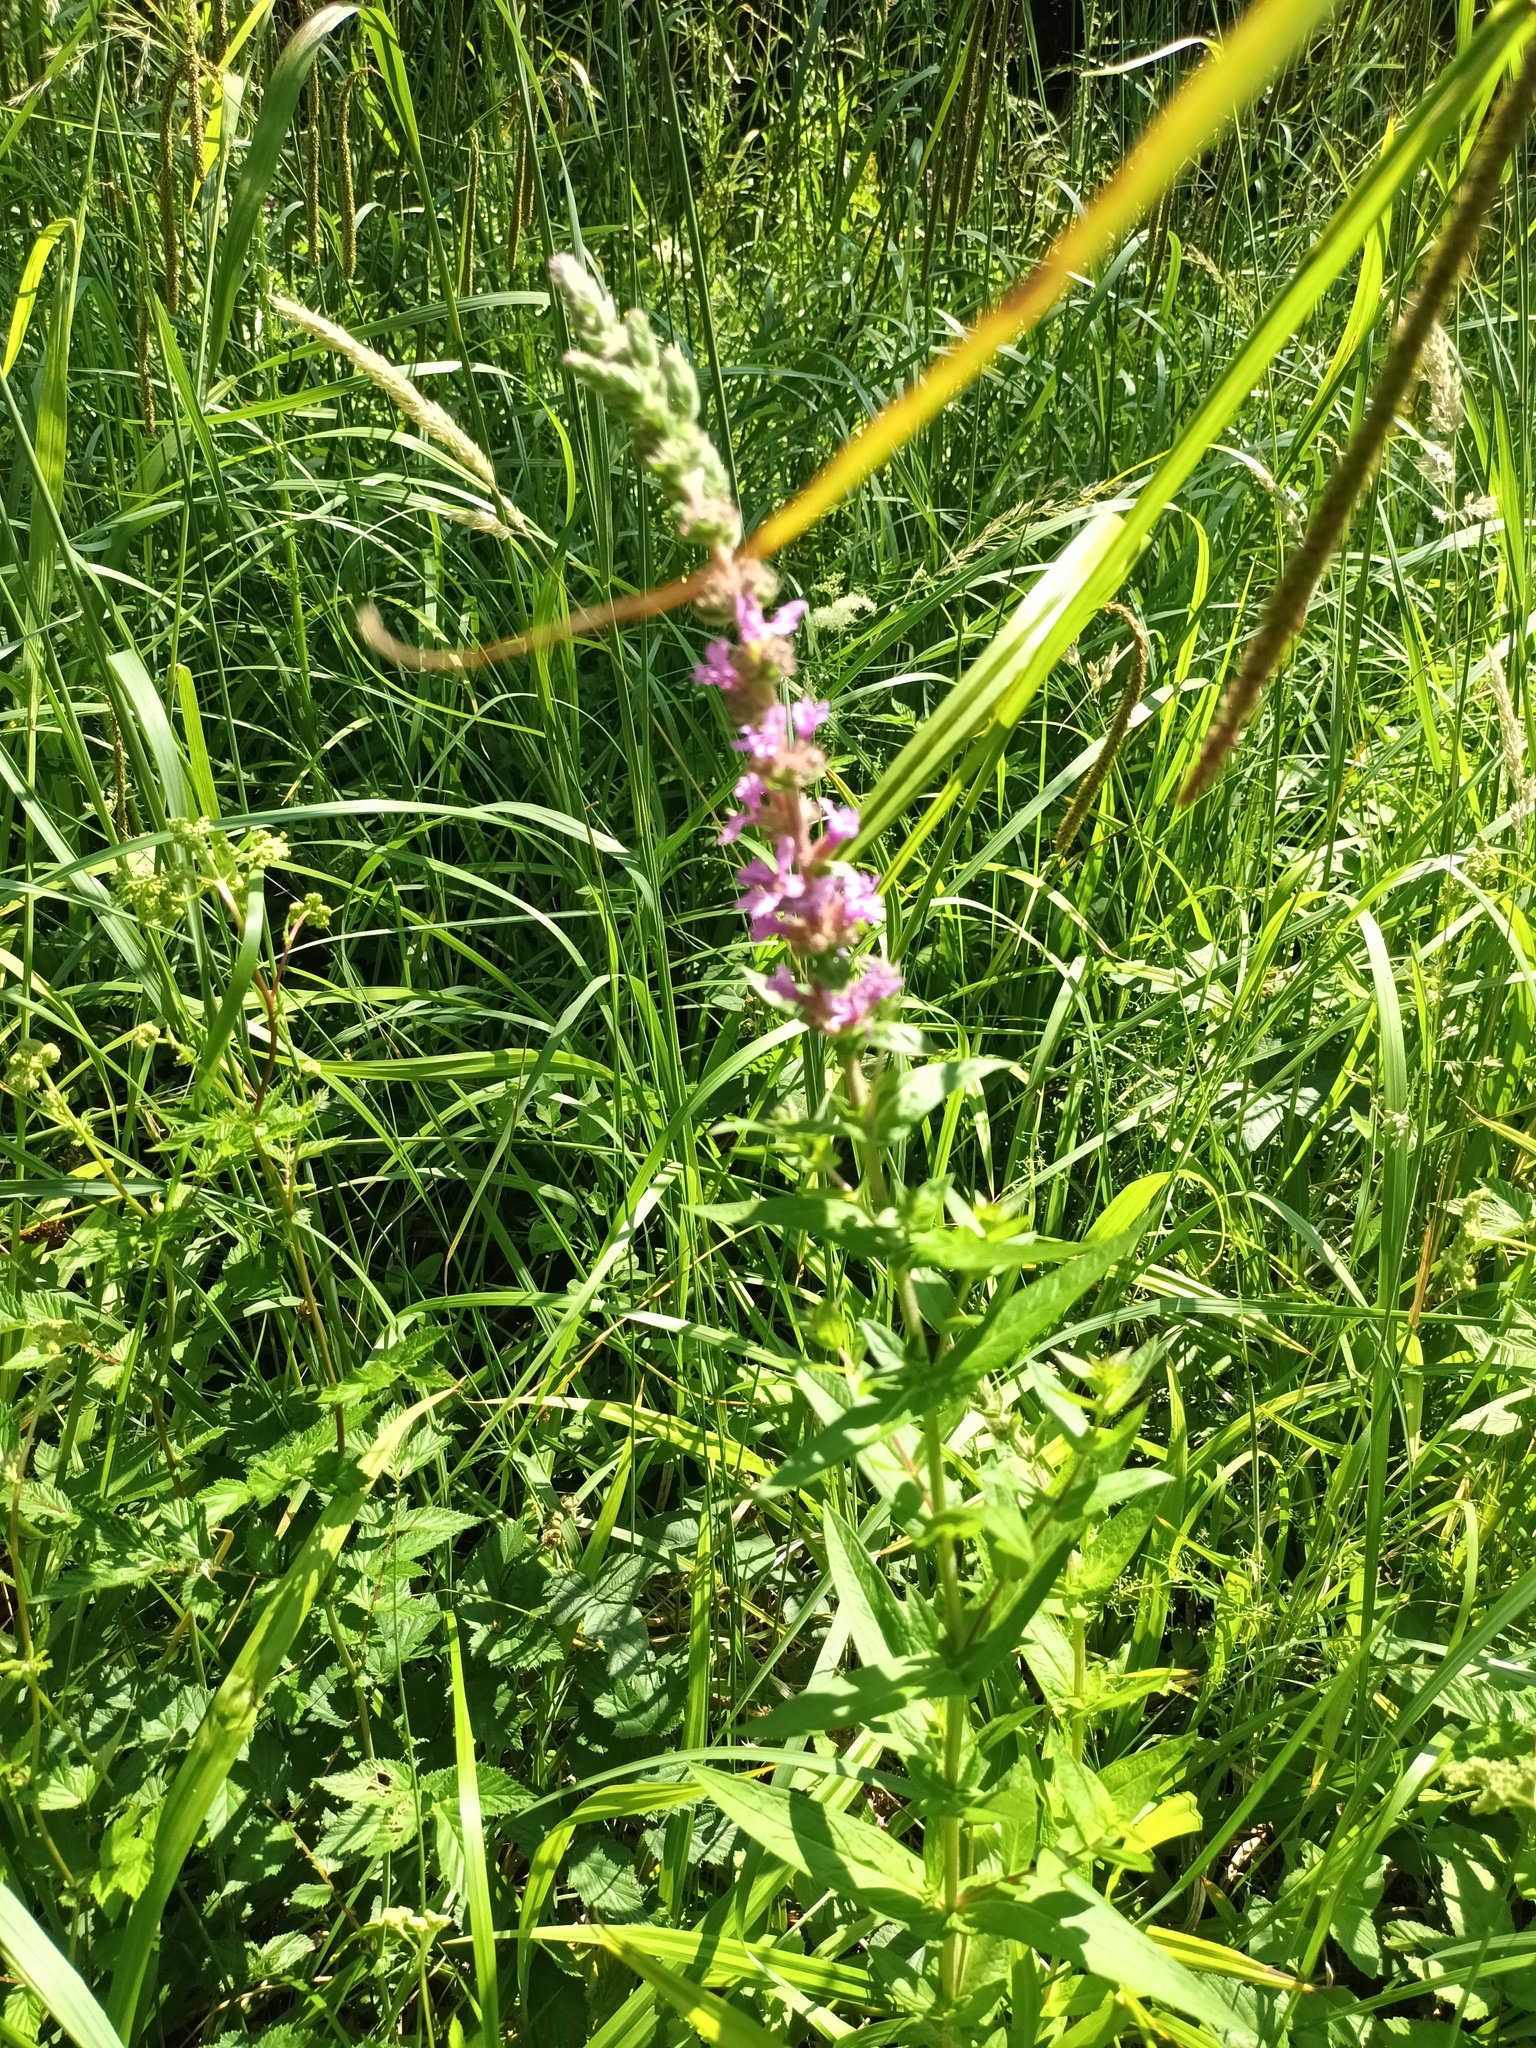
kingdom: Plantae
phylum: Tracheophyta
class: Magnoliopsida
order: Myrtales
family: Lythraceae
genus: Lythrum
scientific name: Lythrum salicaria
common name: Purple loosestrife
